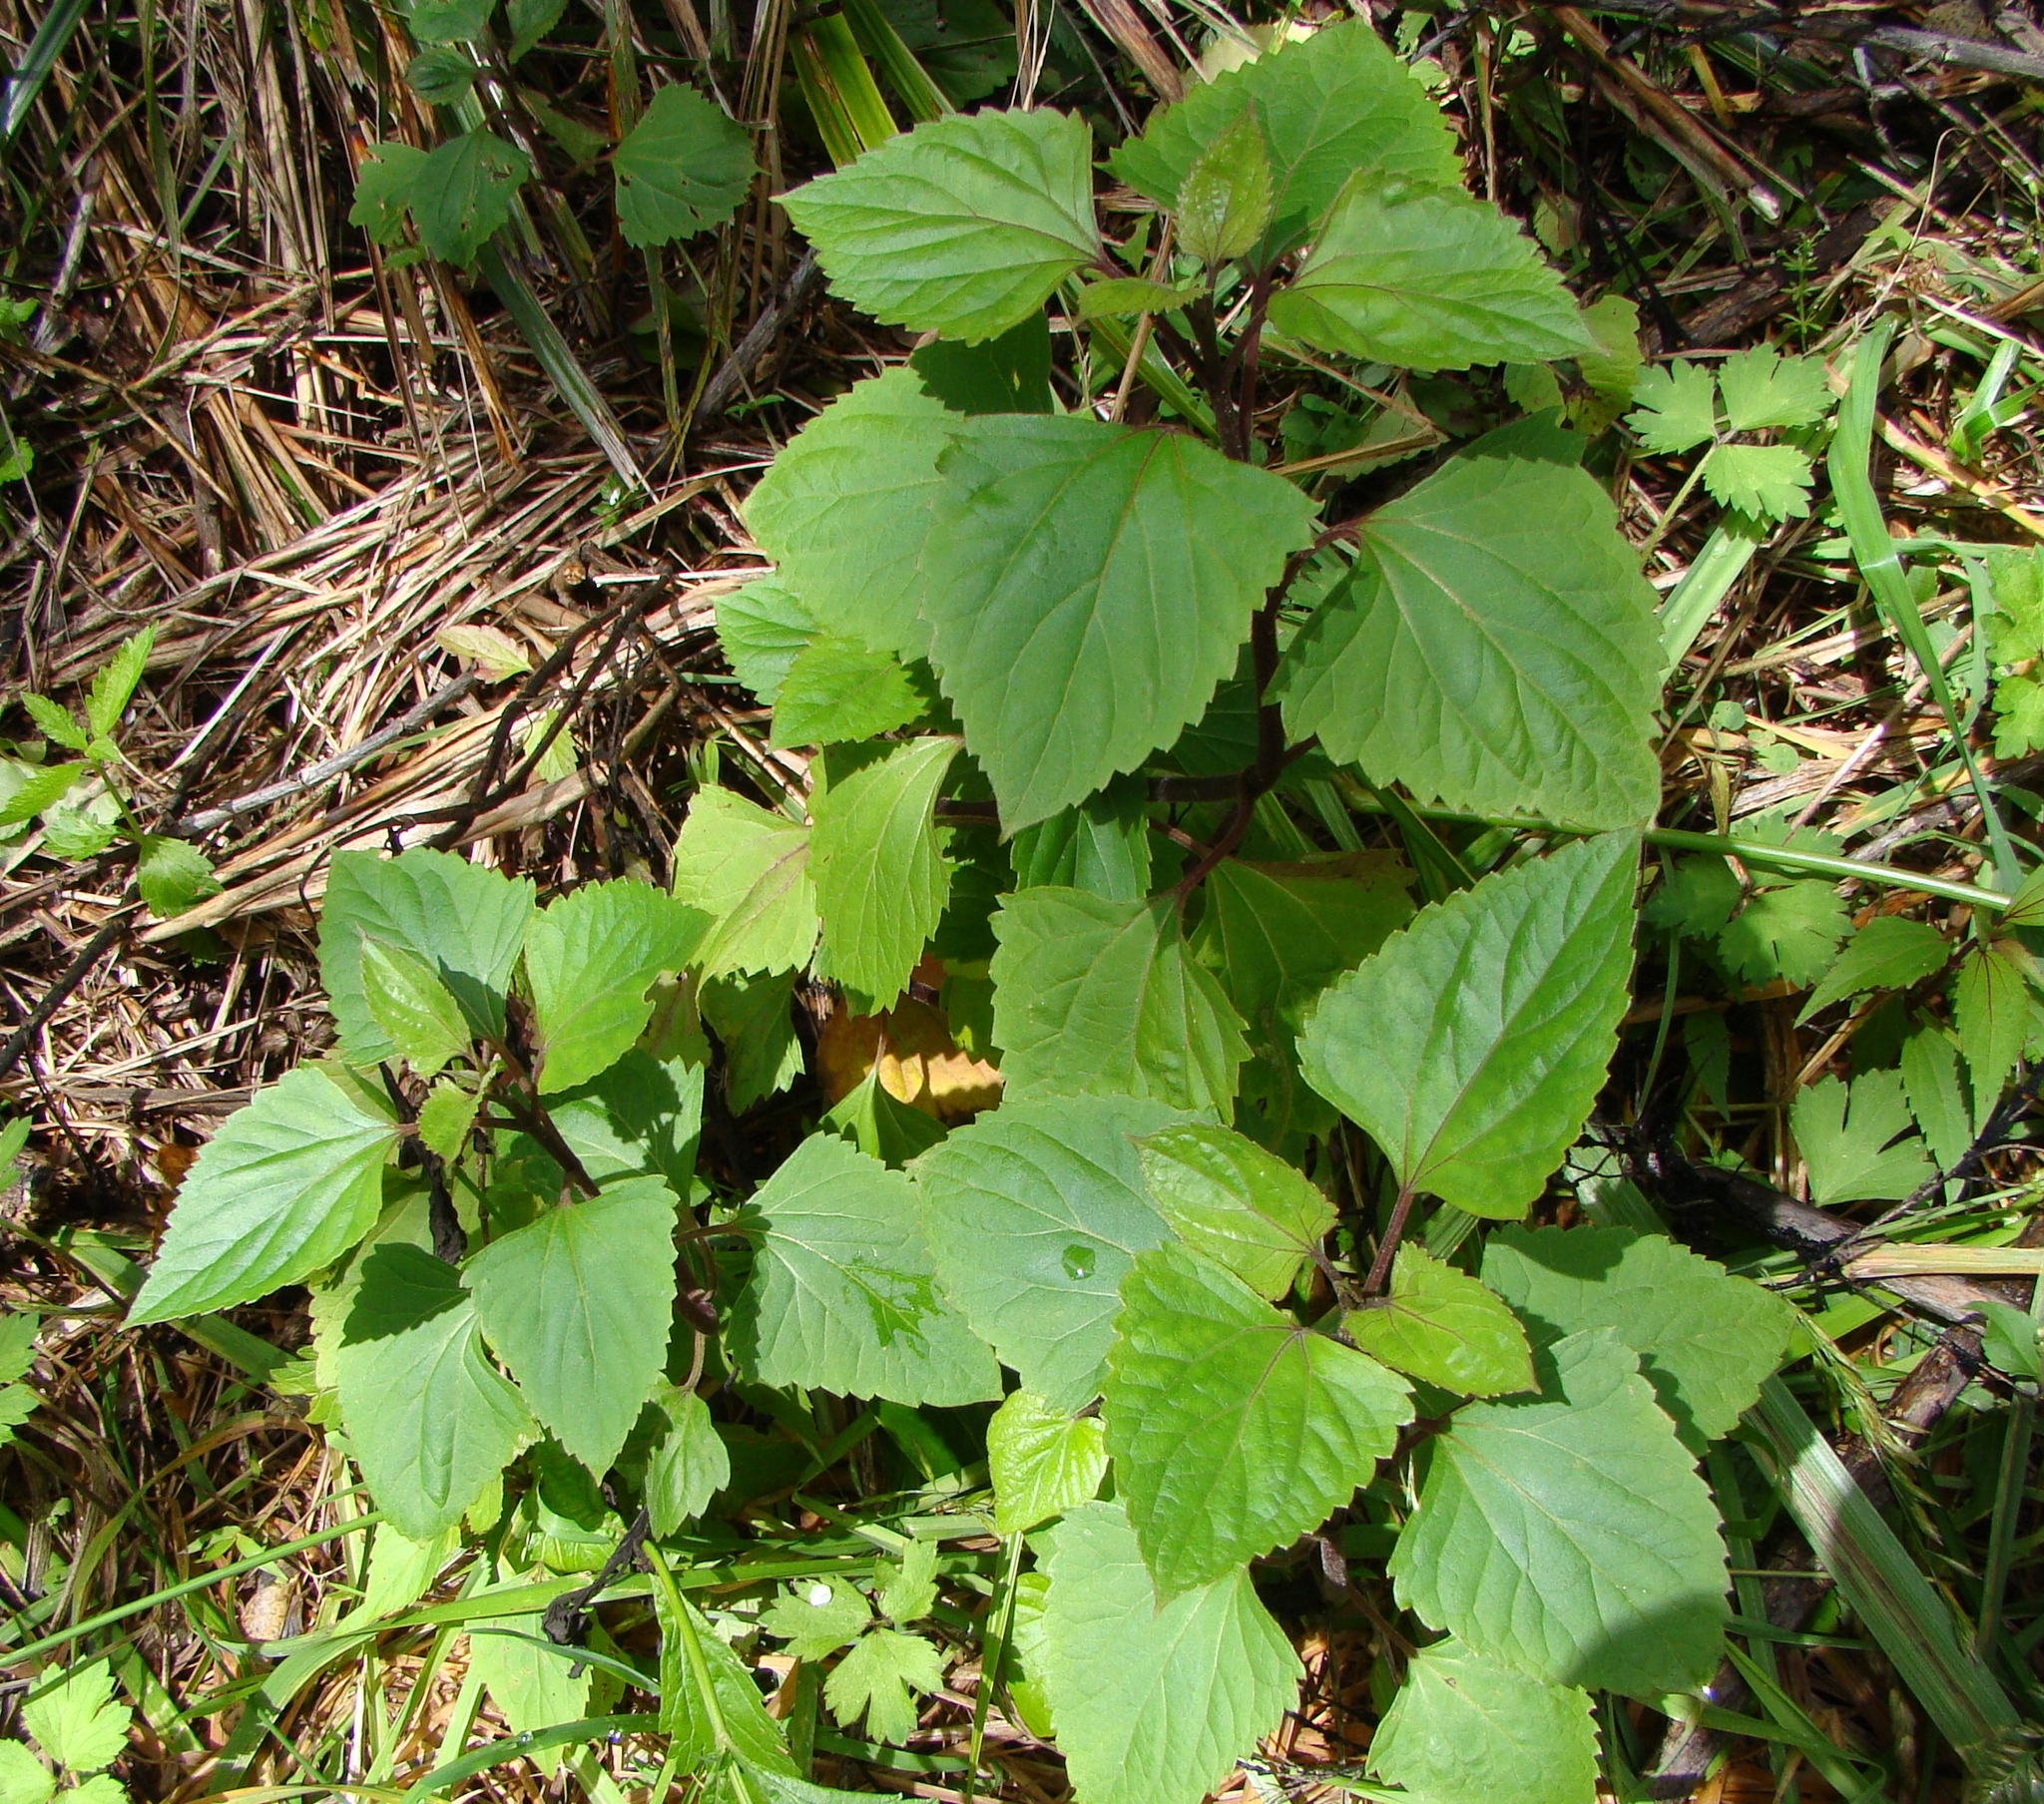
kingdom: Plantae
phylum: Tracheophyta
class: Magnoliopsida
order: Asterales
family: Asteraceae
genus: Ageratina
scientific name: Ageratina adenophora
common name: Sticky snakeroot
